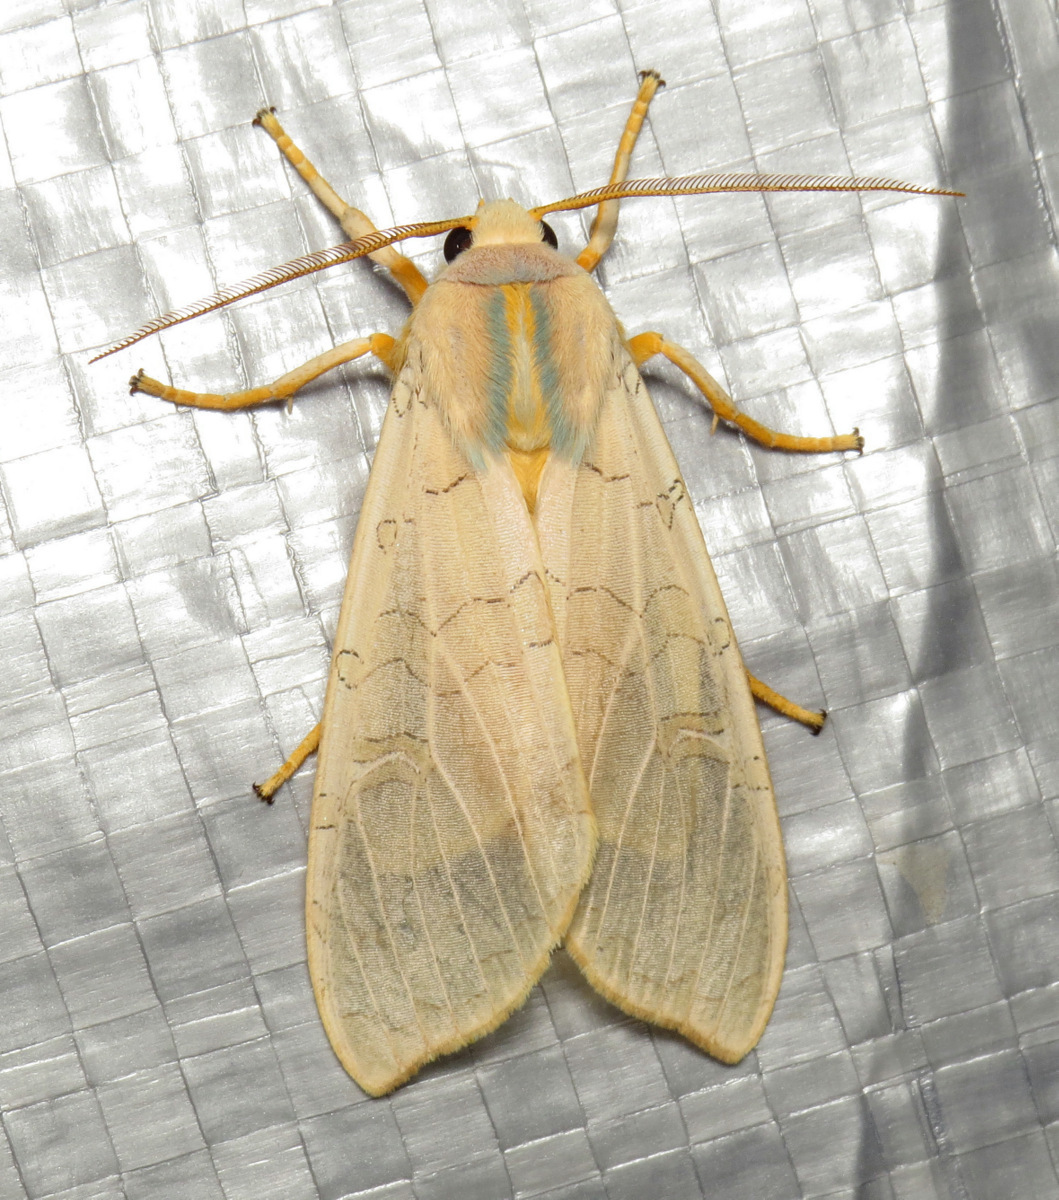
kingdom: Animalia
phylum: Arthropoda
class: Insecta
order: Lepidoptera
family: Erebidae
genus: Halysidota
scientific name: Halysidota
